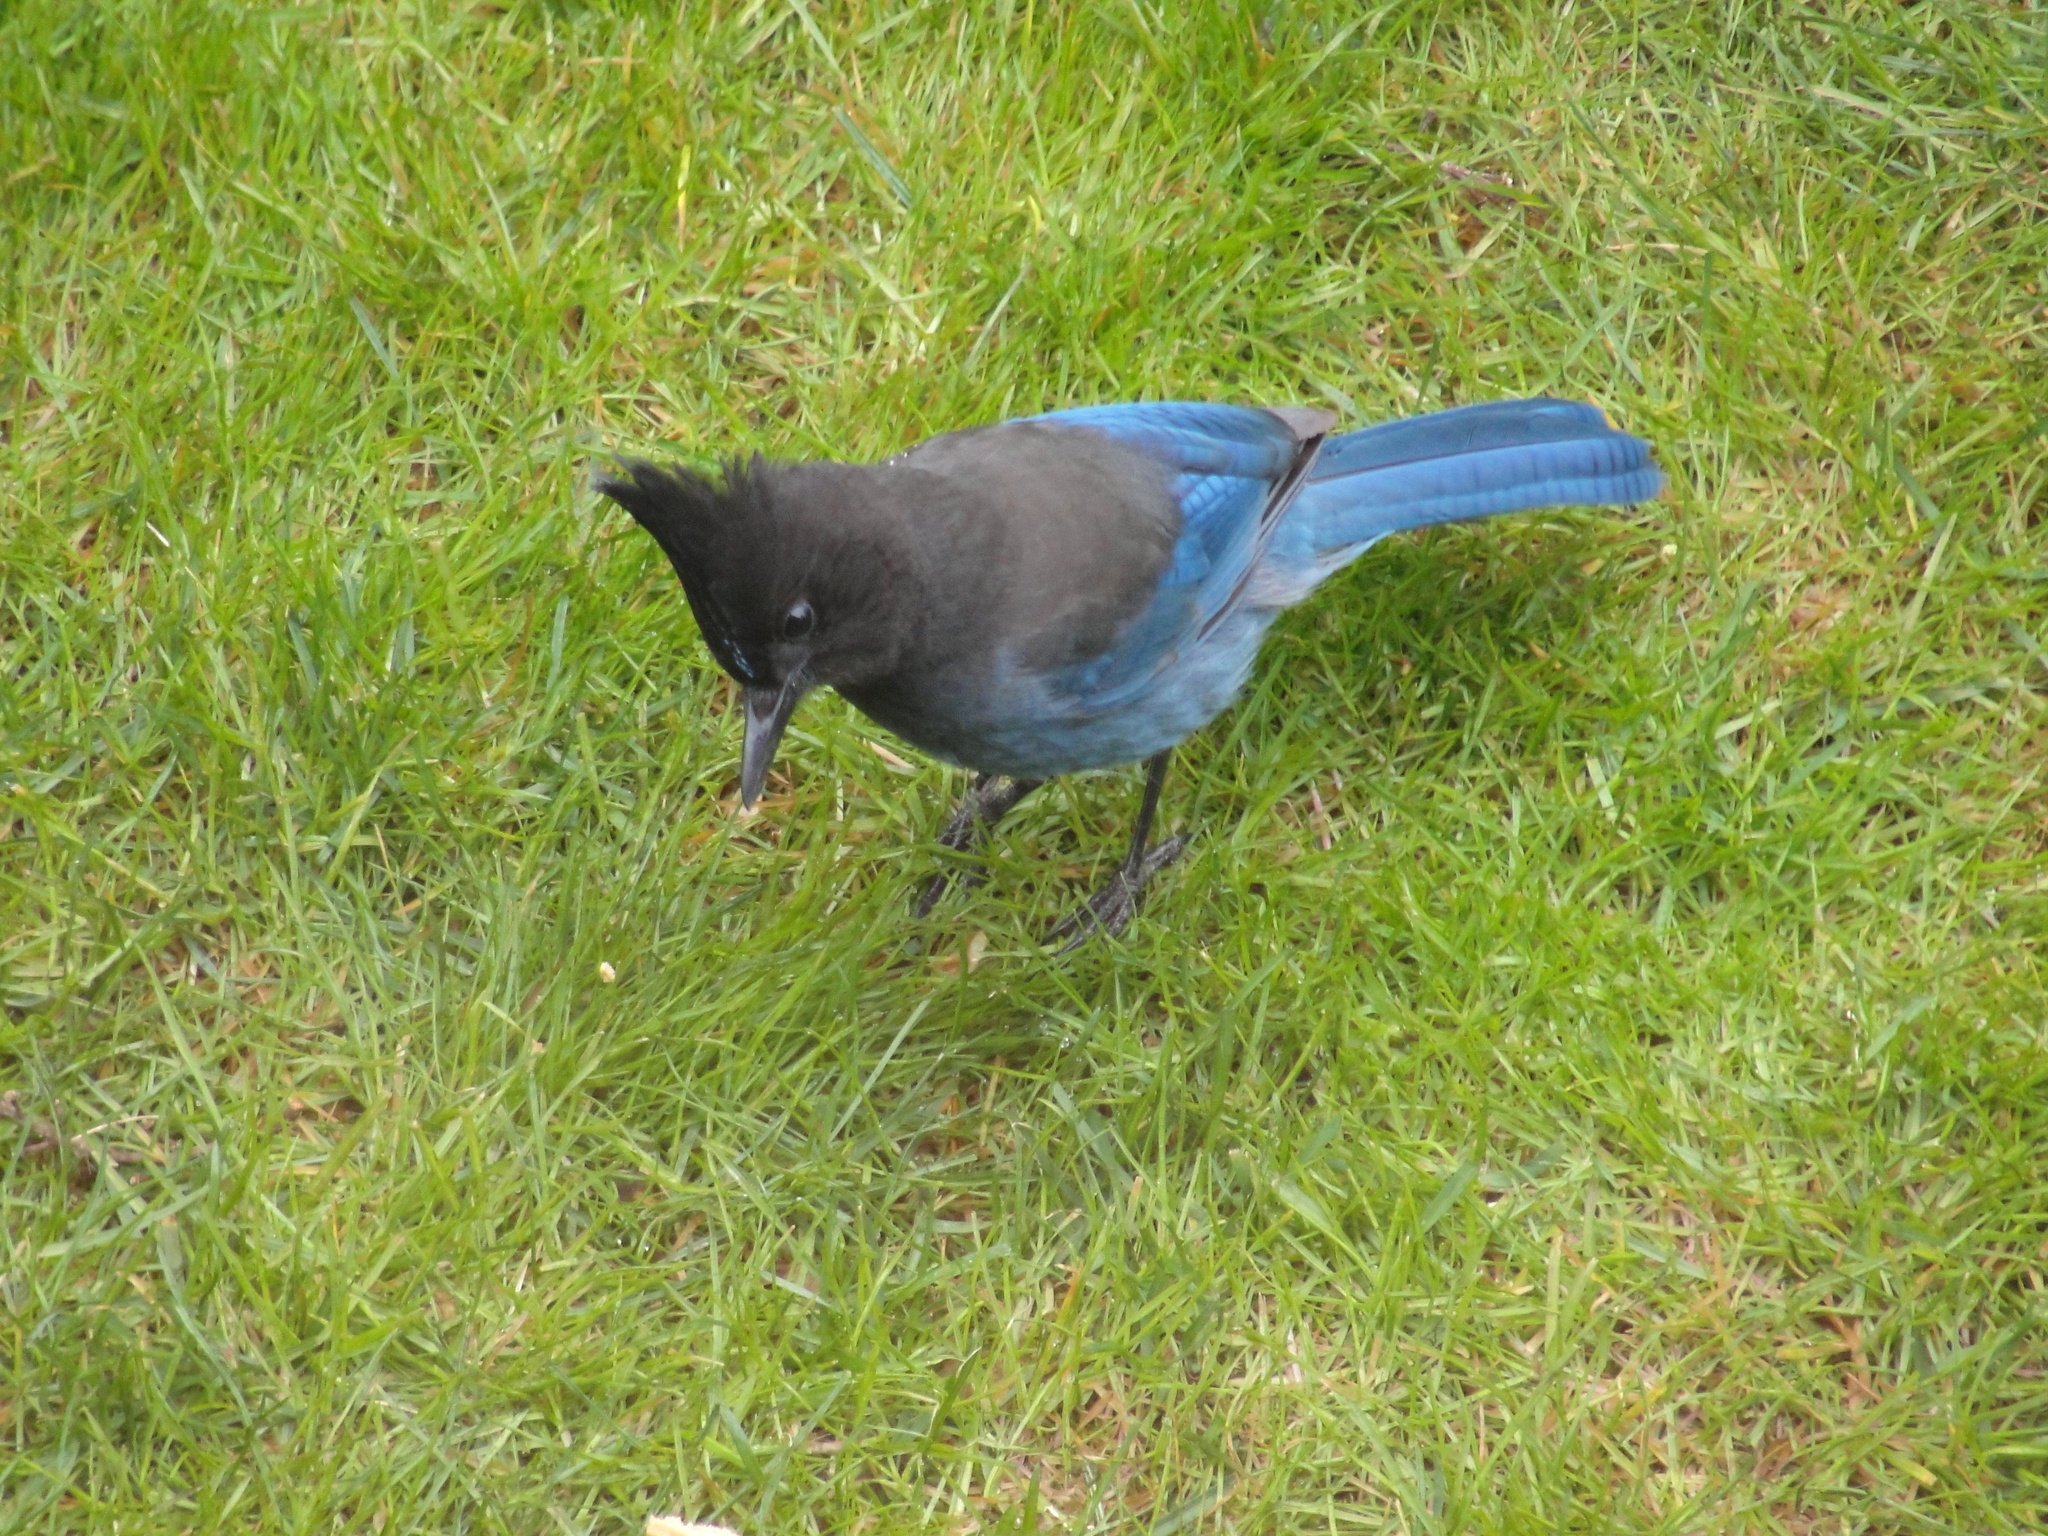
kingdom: Animalia
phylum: Chordata
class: Aves
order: Passeriformes
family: Corvidae
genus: Cyanocitta
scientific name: Cyanocitta stelleri
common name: Steller's jay
